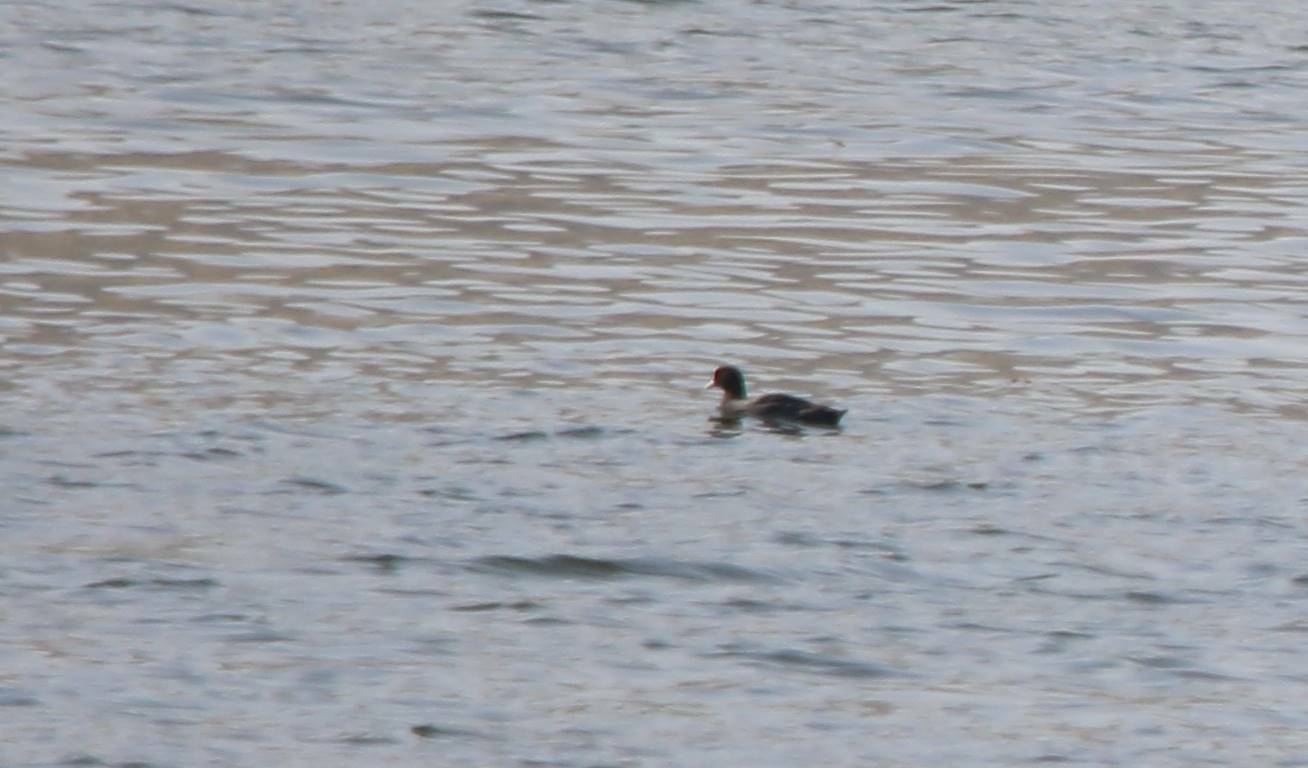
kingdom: Animalia
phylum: Chordata
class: Aves
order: Gruiformes
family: Rallidae
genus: Fulica
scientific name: Fulica atra
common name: Eurasian coot
